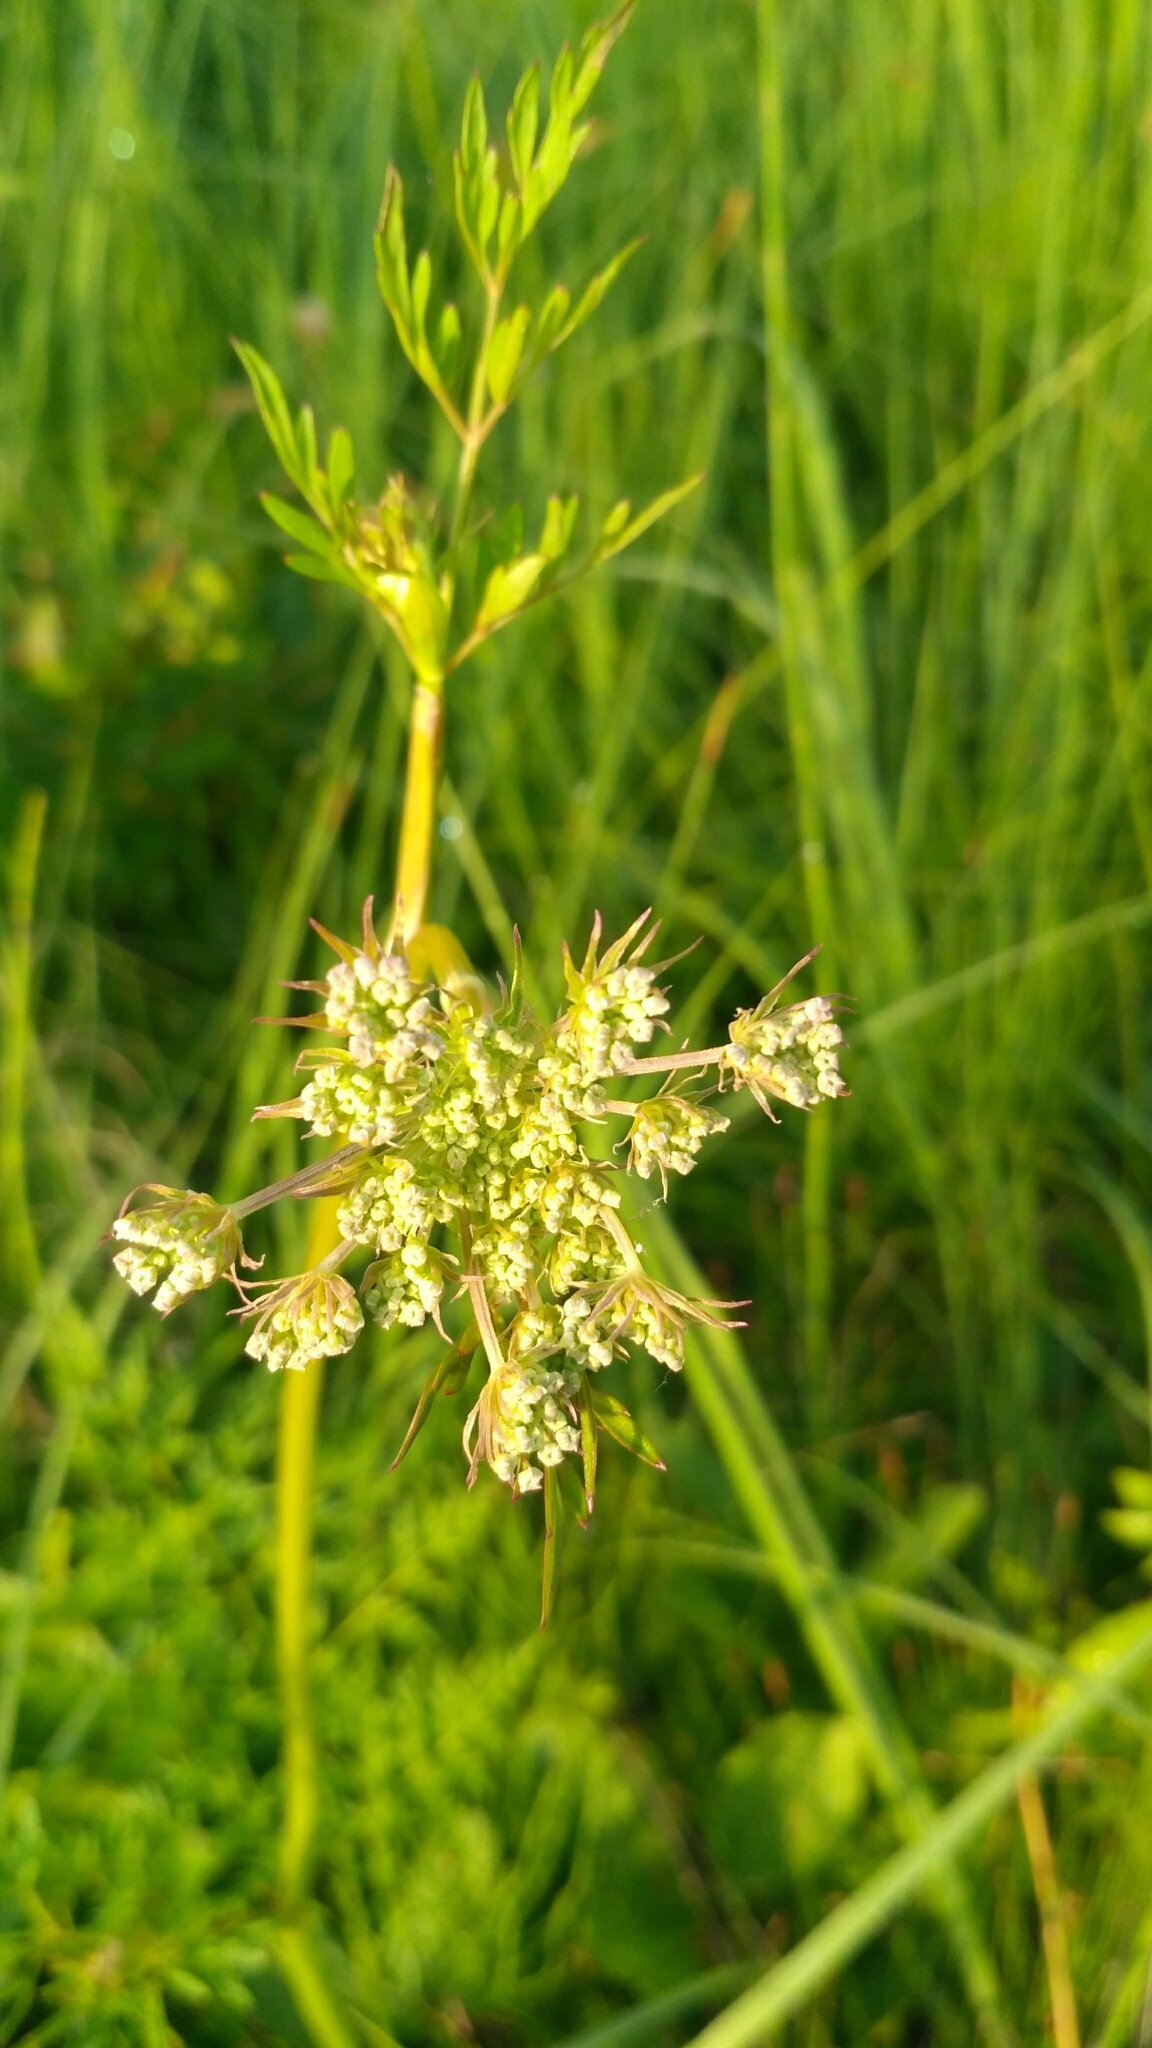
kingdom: Plantae
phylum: Tracheophyta
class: Magnoliopsida
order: Apiales
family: Apiaceae
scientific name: Apiaceae
